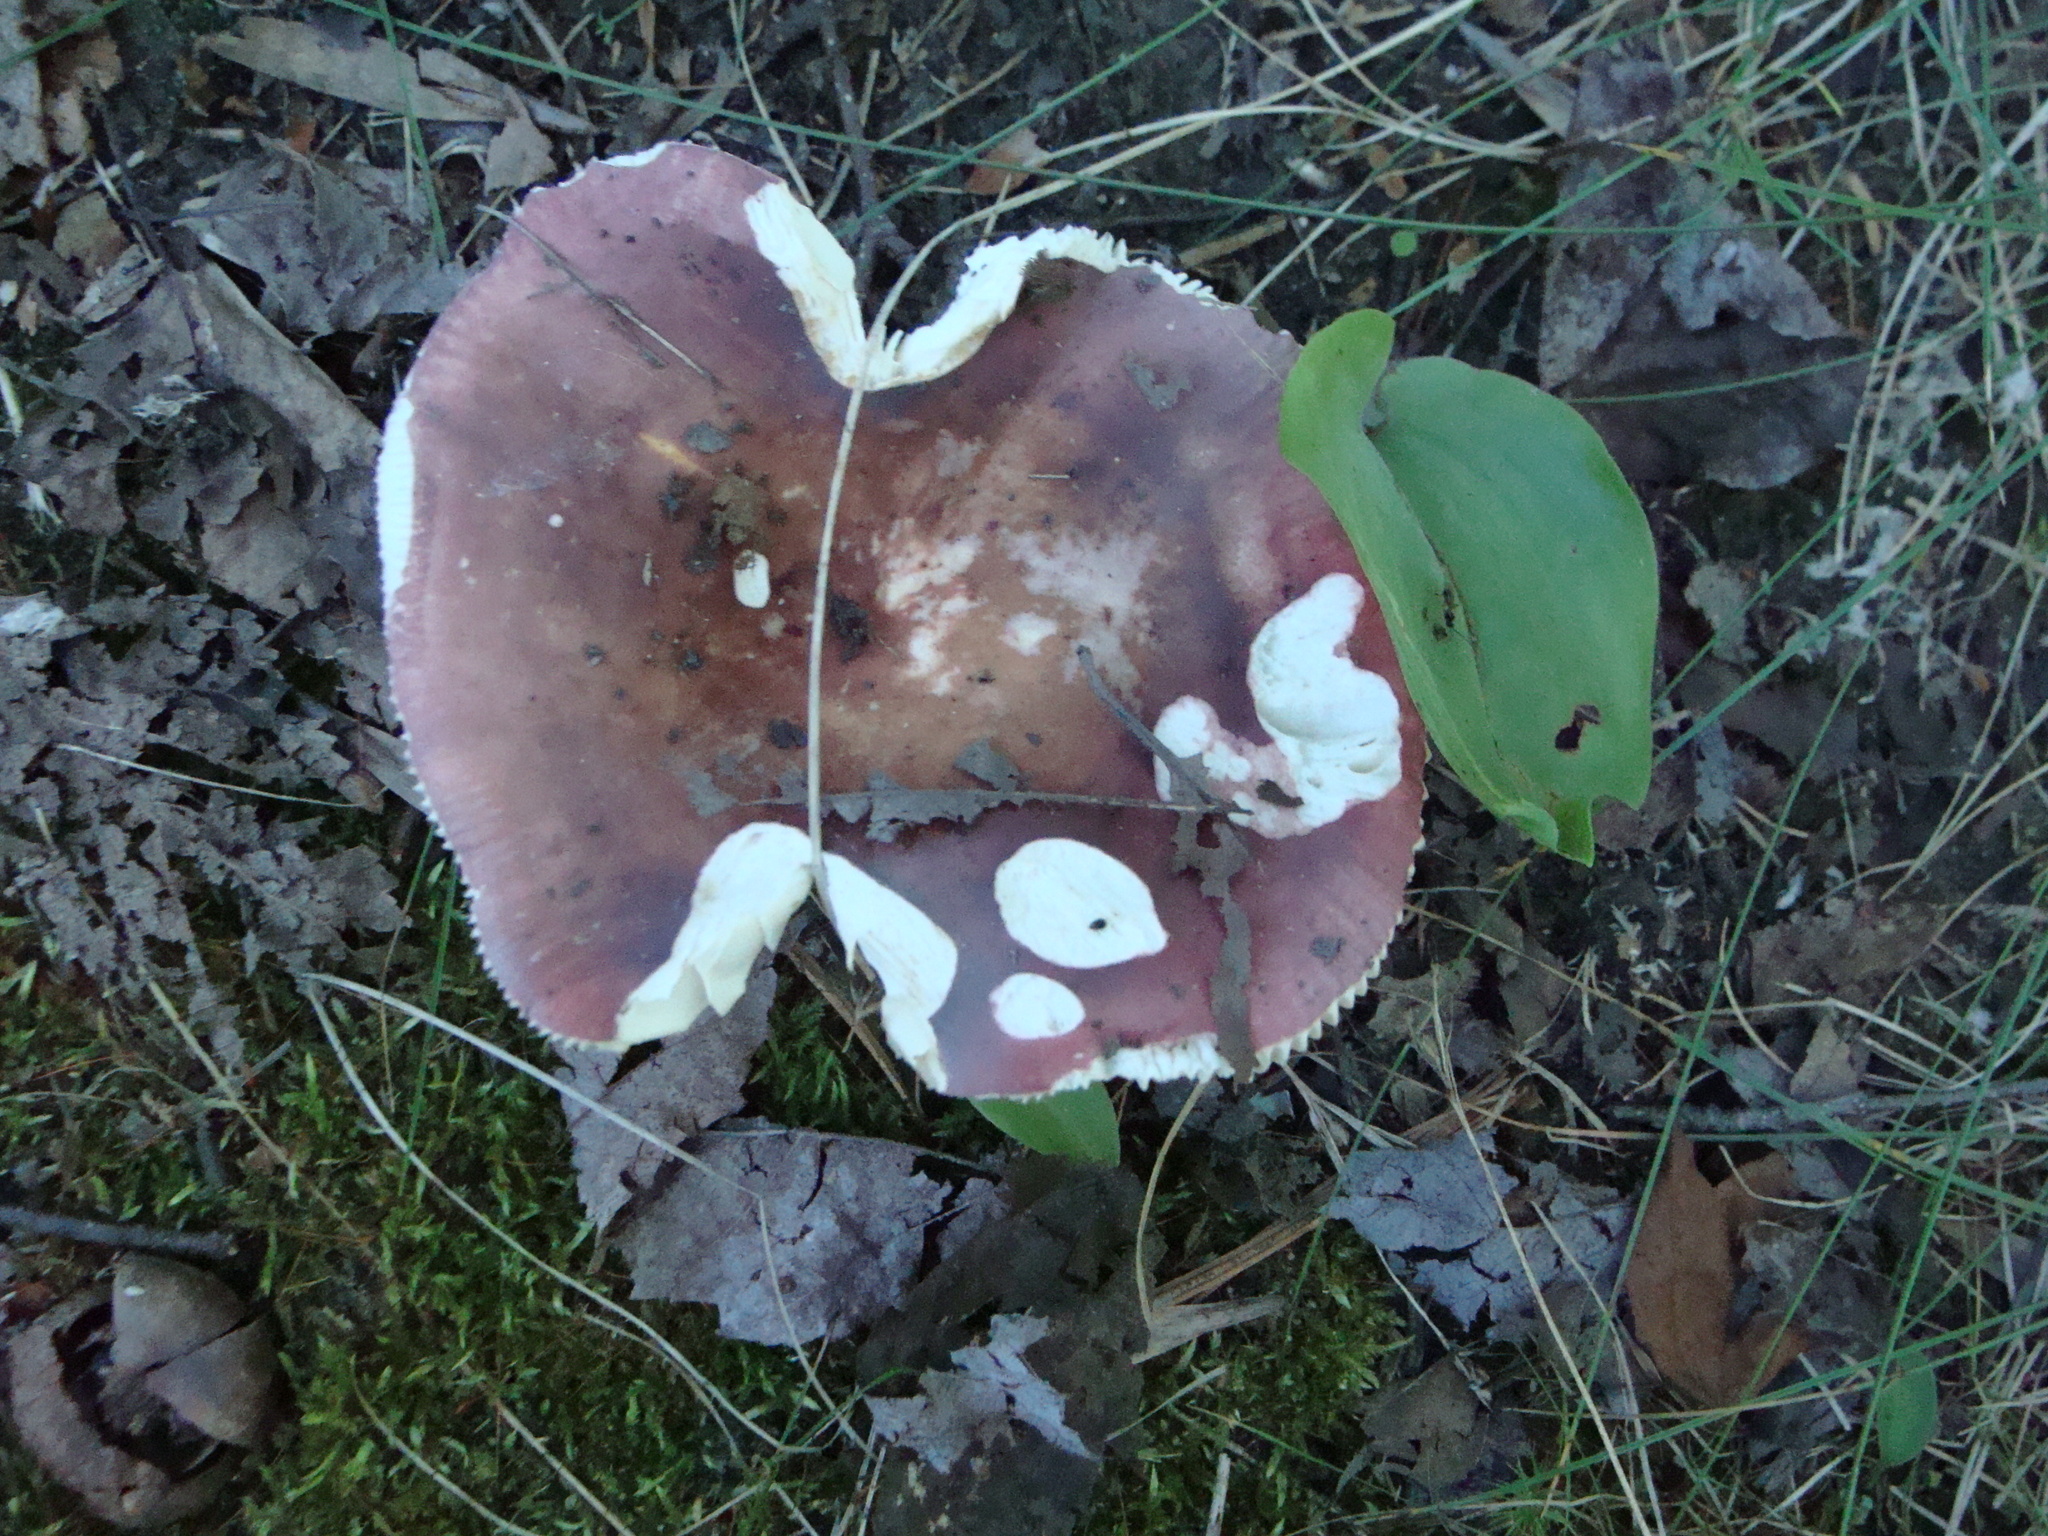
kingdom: Fungi
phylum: Basidiomycota
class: Agaricomycetes
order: Russulales
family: Russulaceae
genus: Russula
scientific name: Russula
